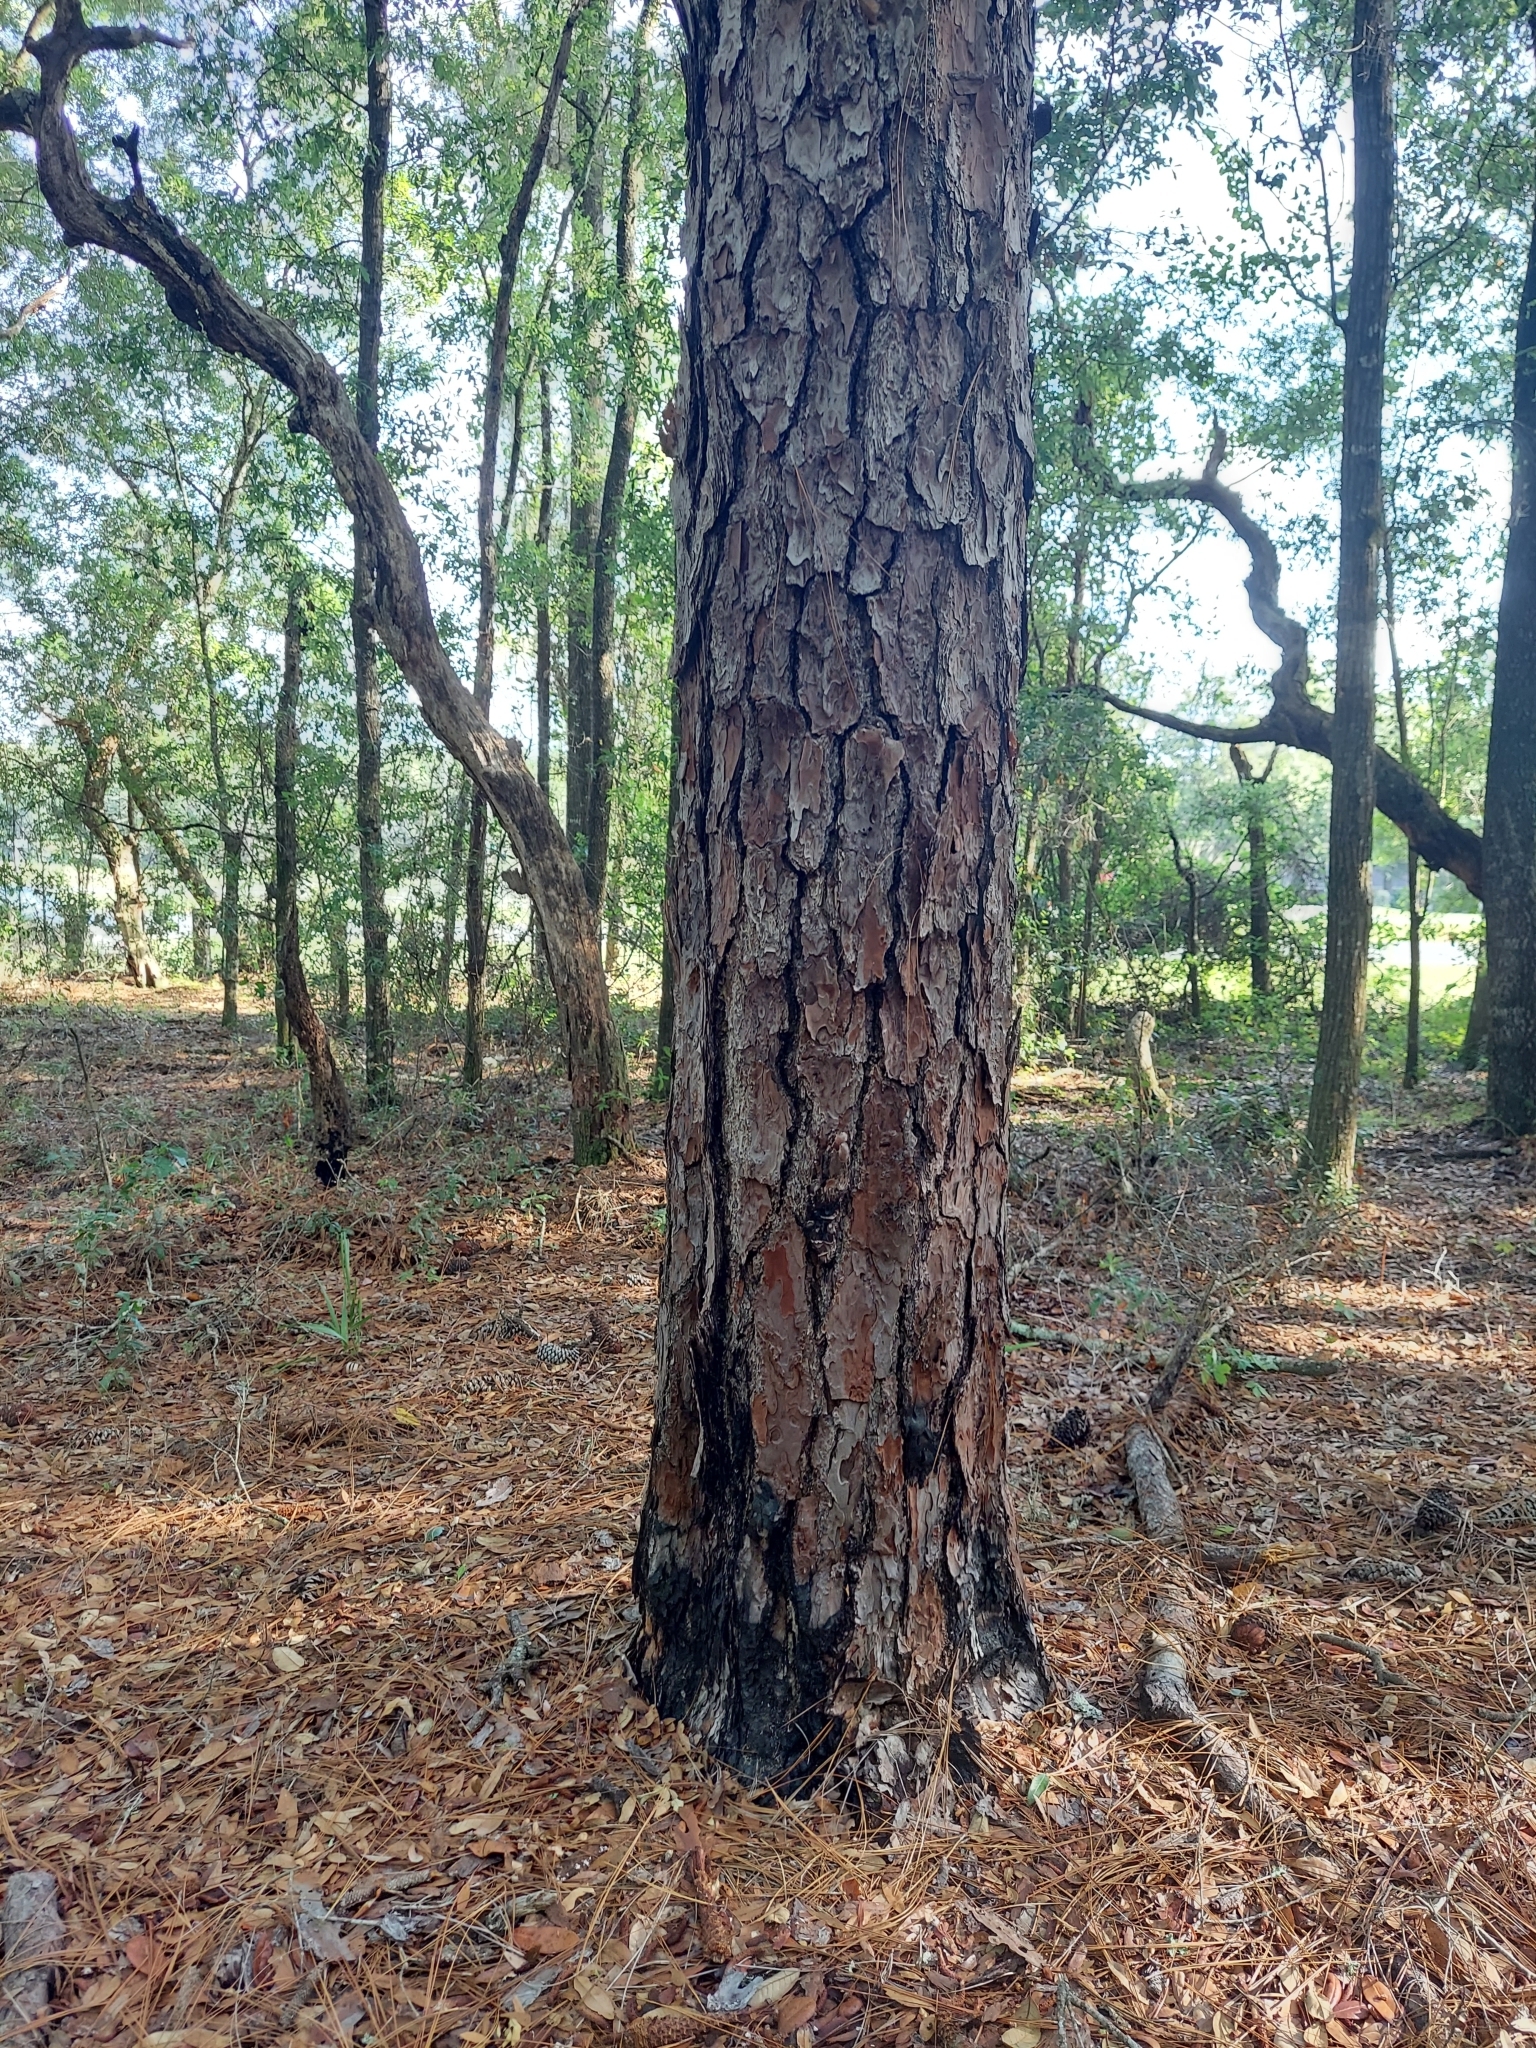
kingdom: Plantae
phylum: Tracheophyta
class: Pinopsida
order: Pinales
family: Pinaceae
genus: Pinus
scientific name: Pinus palustris
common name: Longleaf pine
